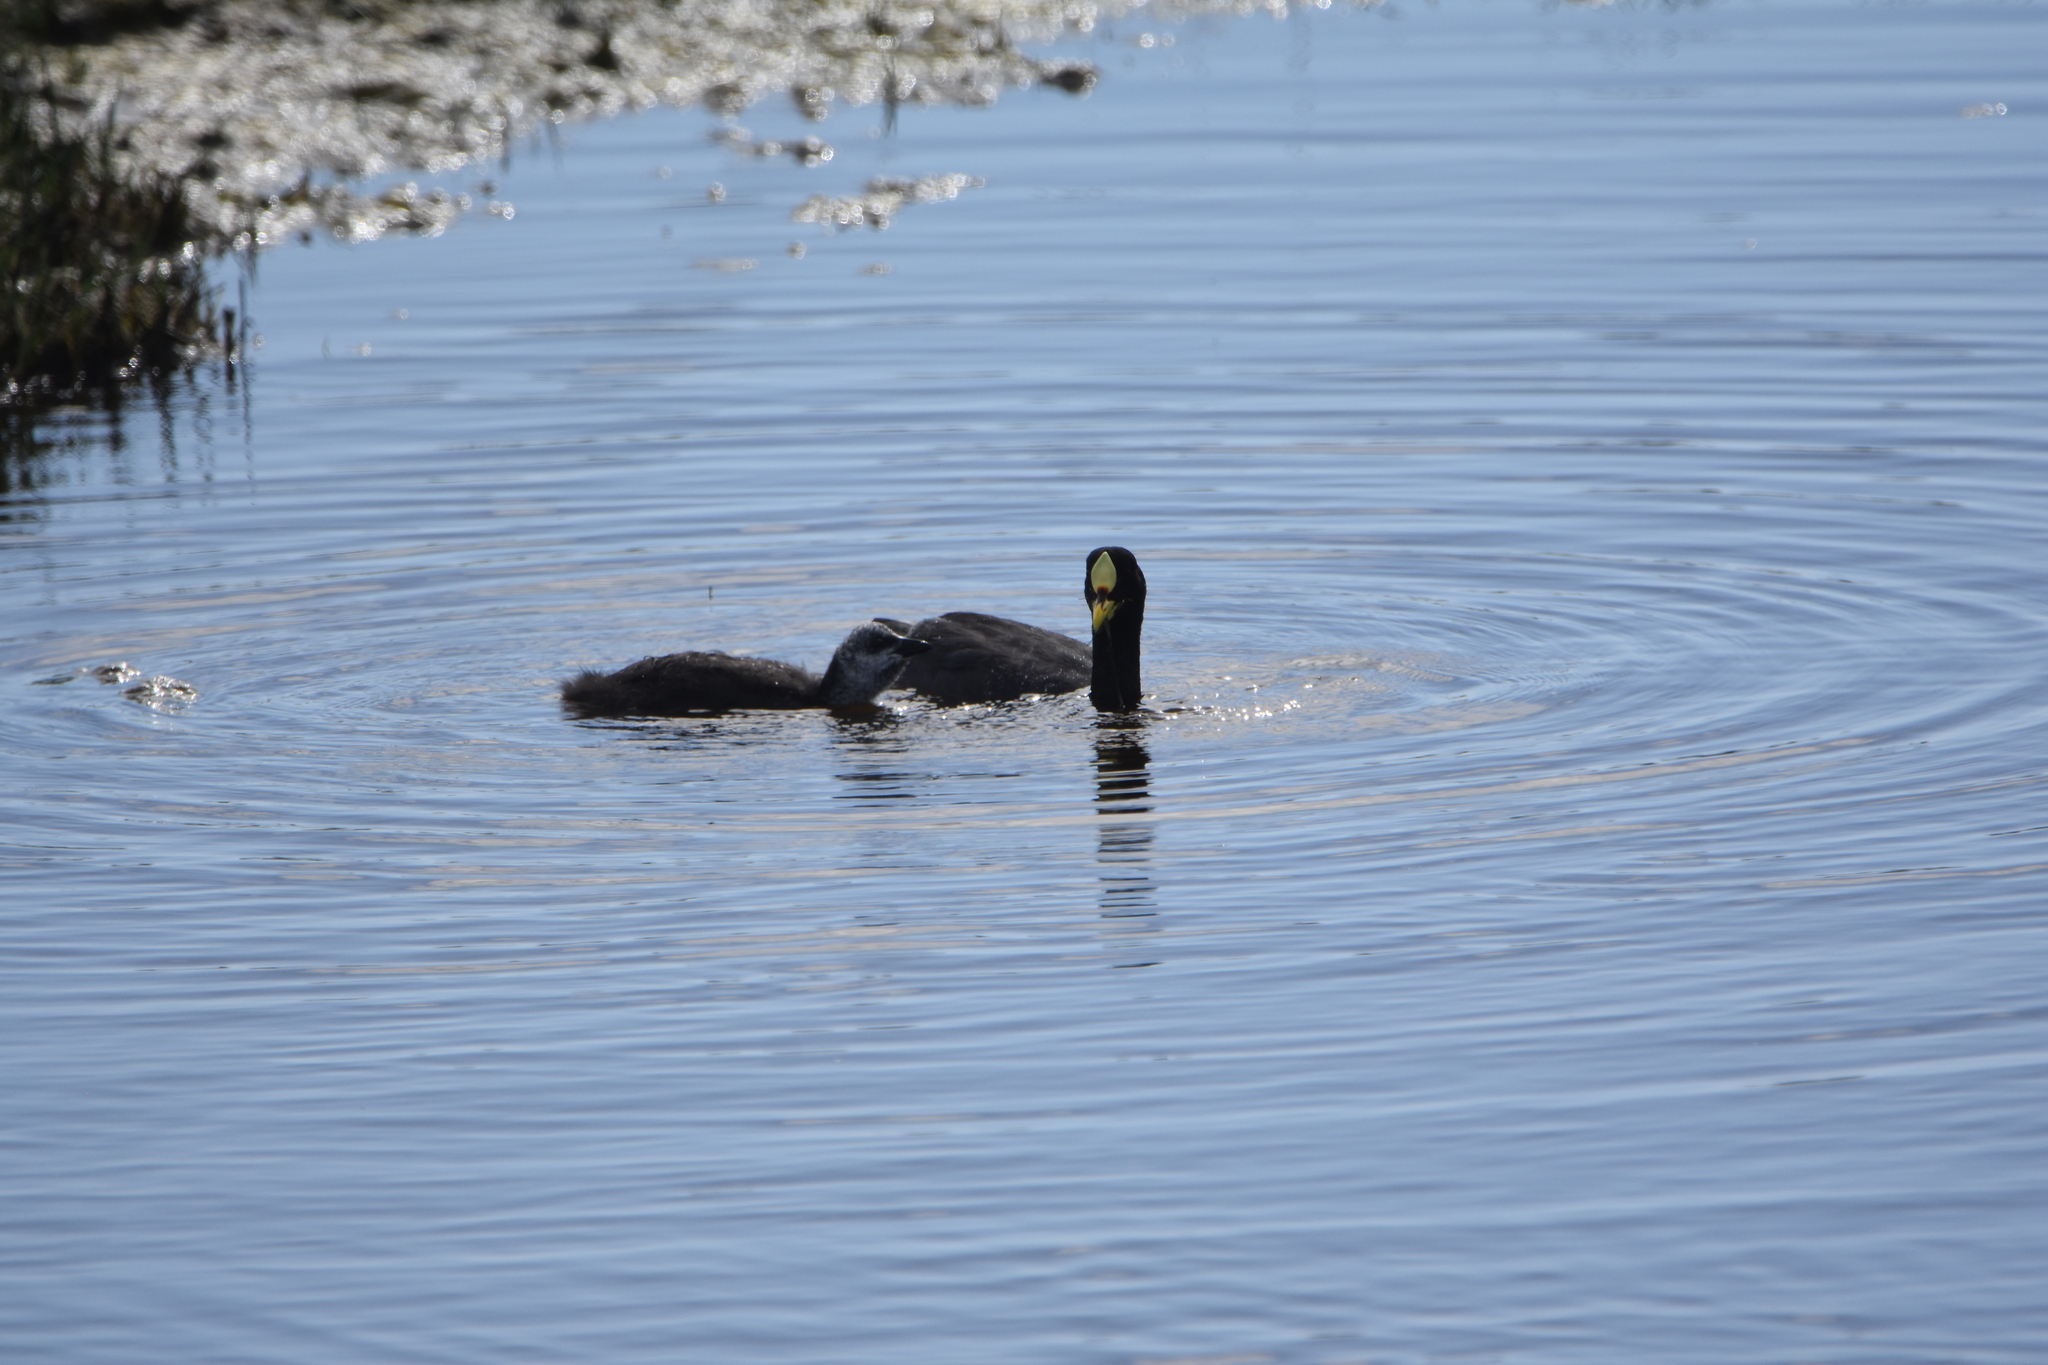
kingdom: Animalia
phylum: Chordata
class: Aves
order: Gruiformes
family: Rallidae
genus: Fulica
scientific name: Fulica armillata
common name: Red-gartered coot
